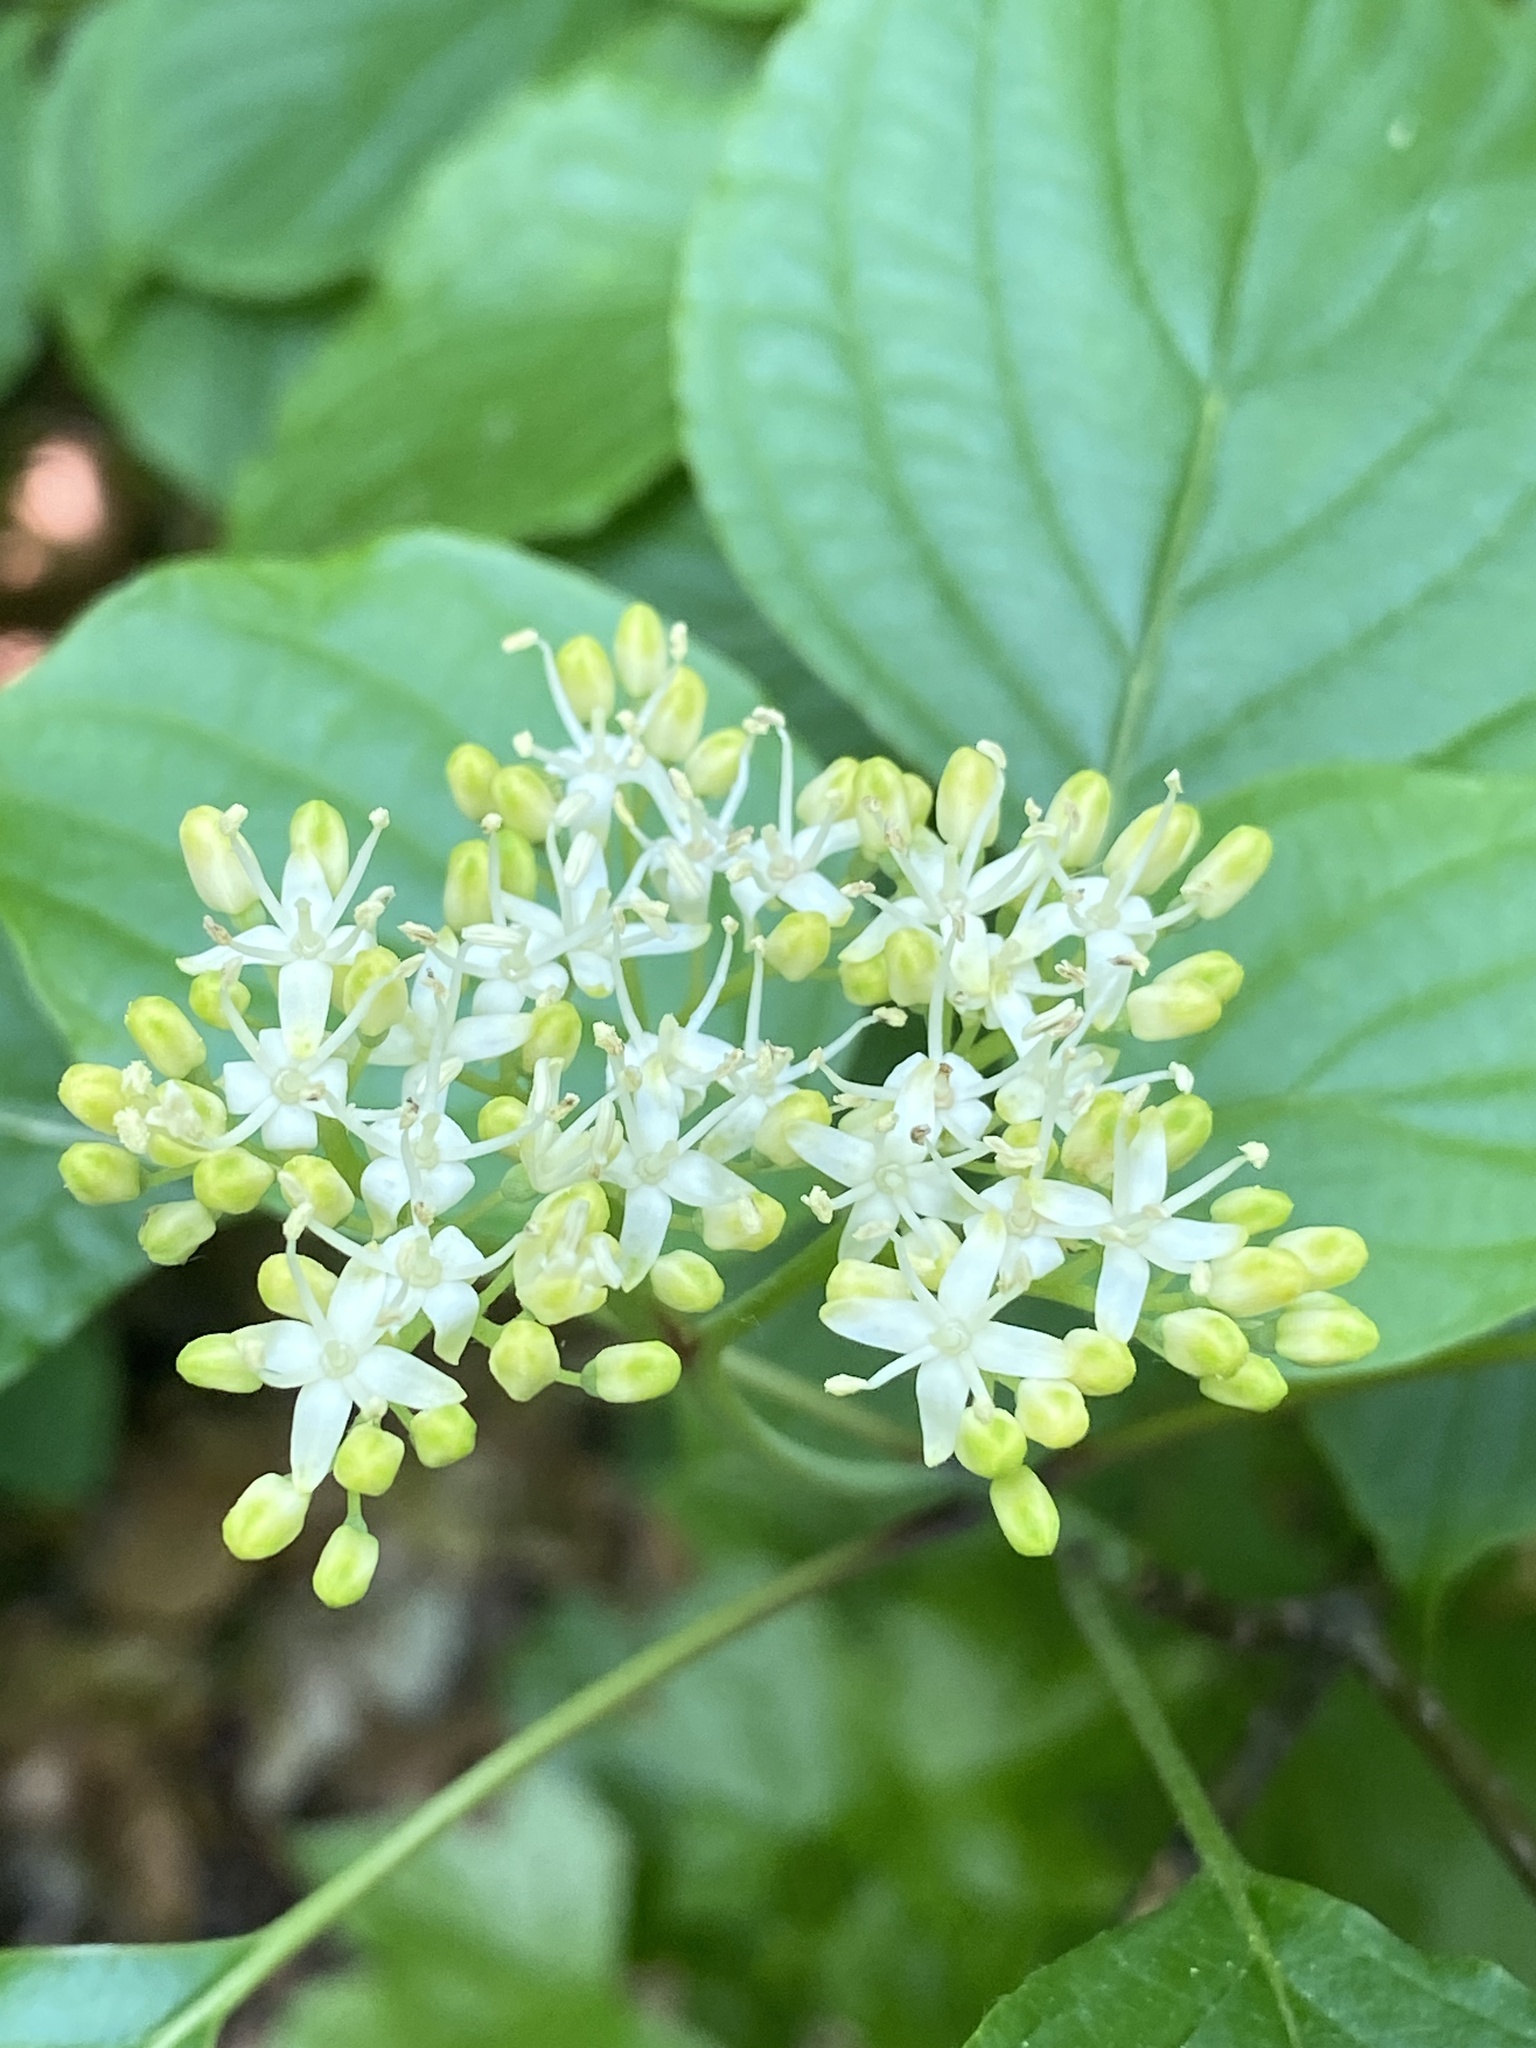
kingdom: Plantae
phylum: Tracheophyta
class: Magnoliopsida
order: Cornales
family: Cornaceae
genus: Cornus
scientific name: Cornus alternifolia
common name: Pagoda dogwood
